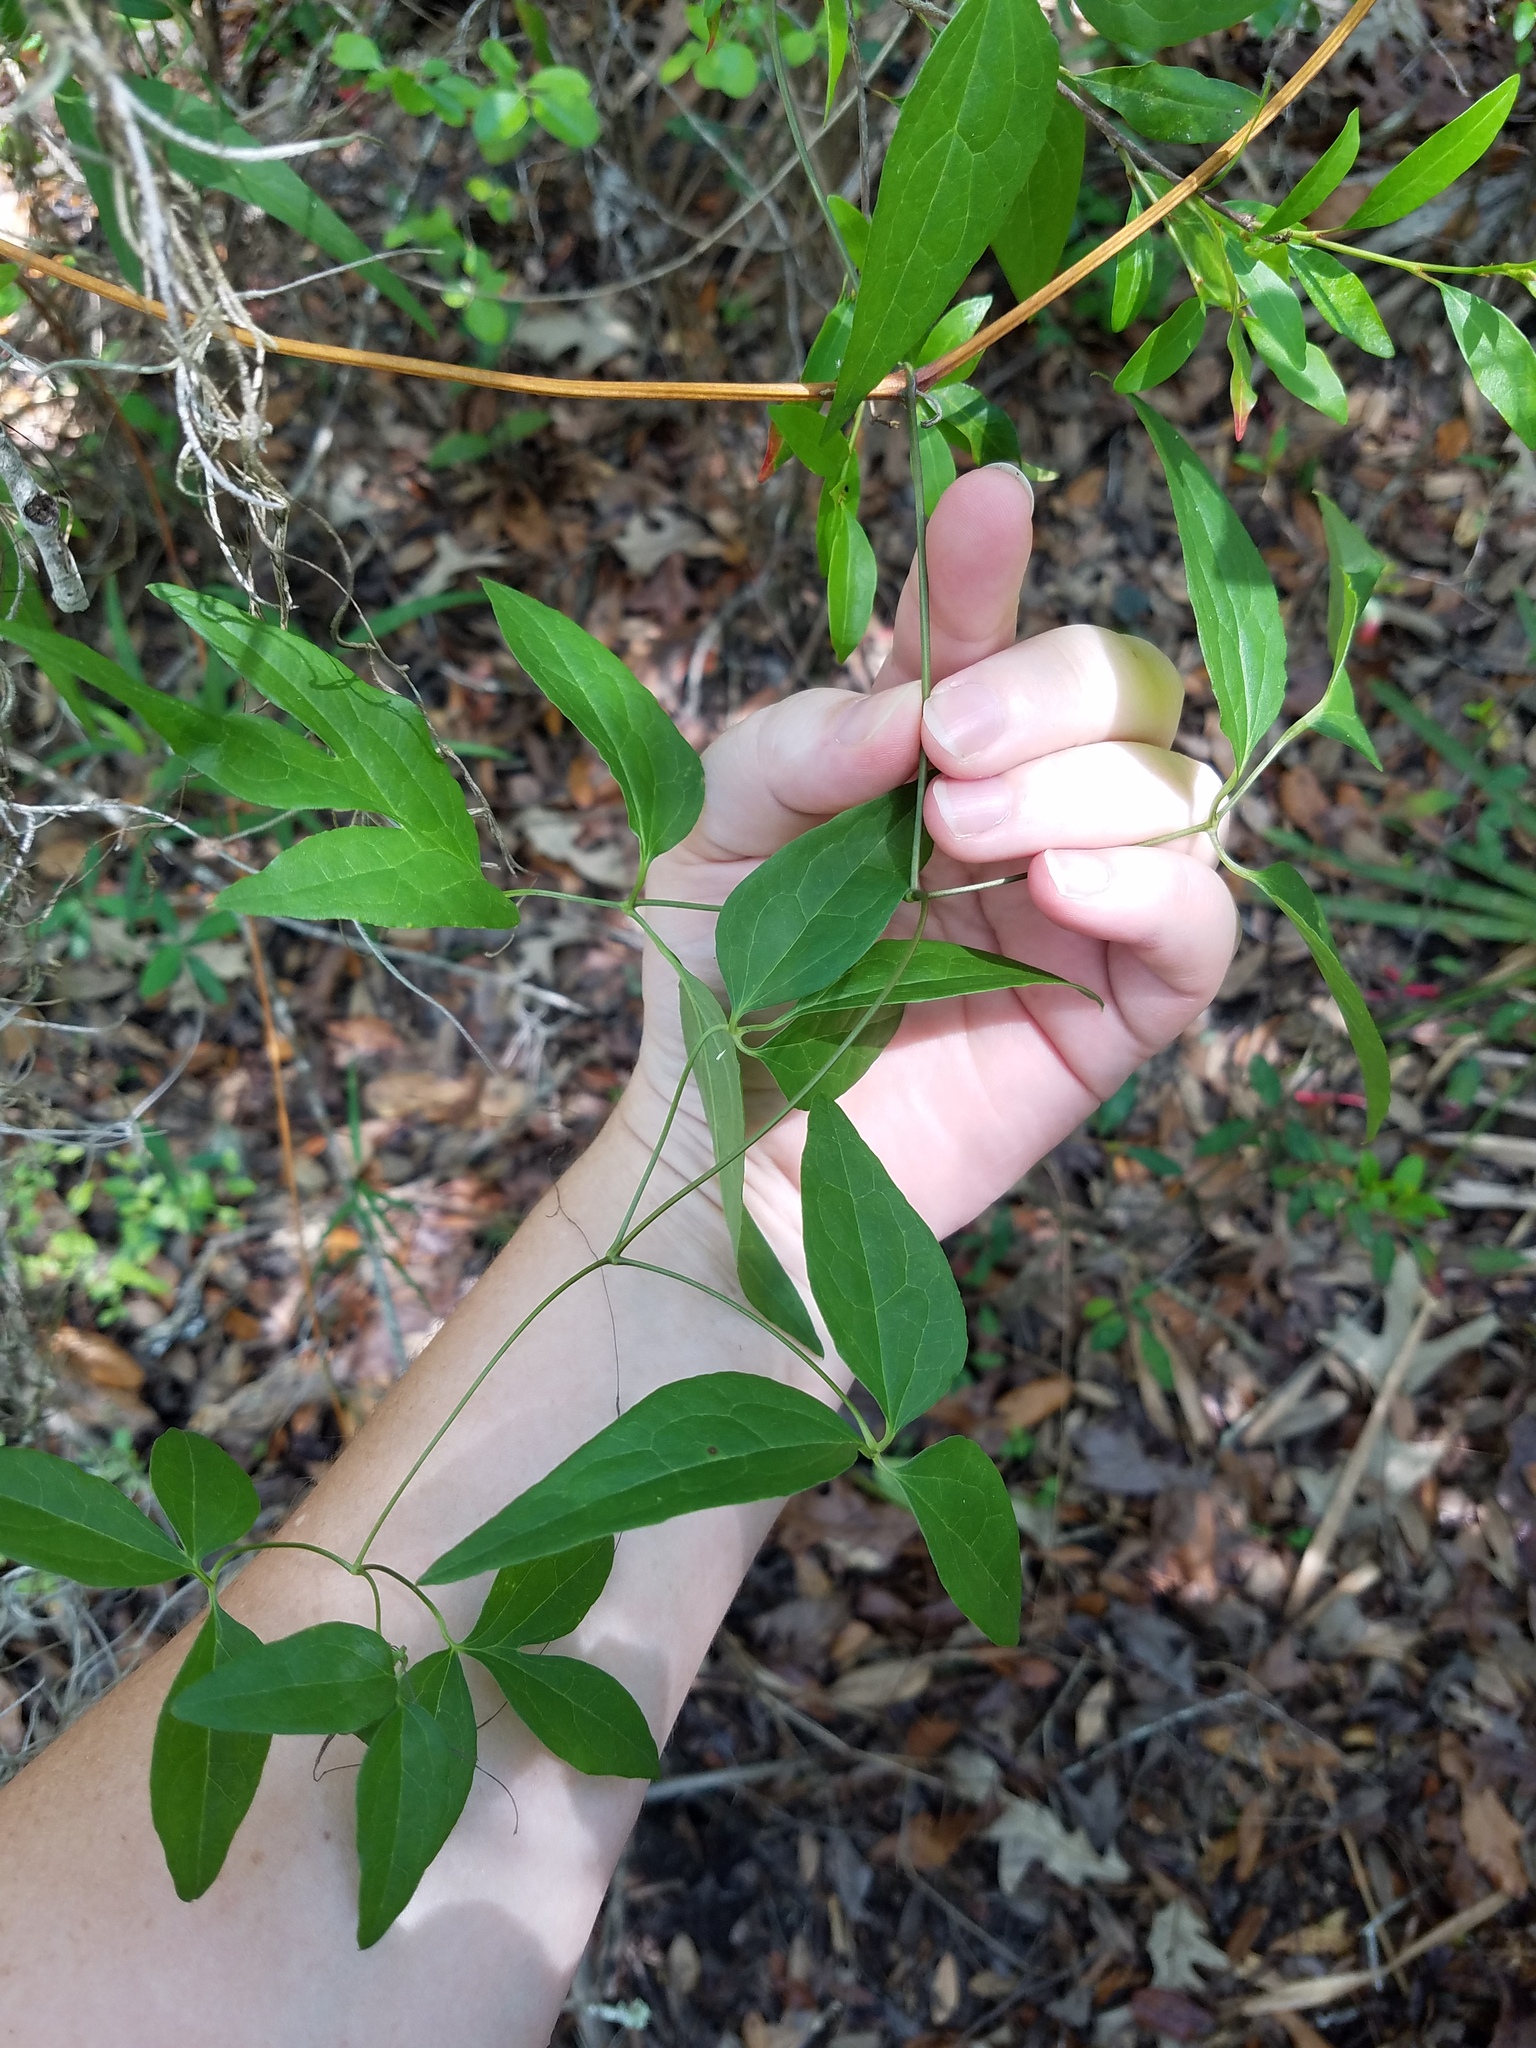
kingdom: Plantae
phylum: Tracheophyta
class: Magnoliopsida
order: Ranunculales
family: Ranunculaceae
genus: Clematis
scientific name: Clematis crispa
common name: Curly clematis
